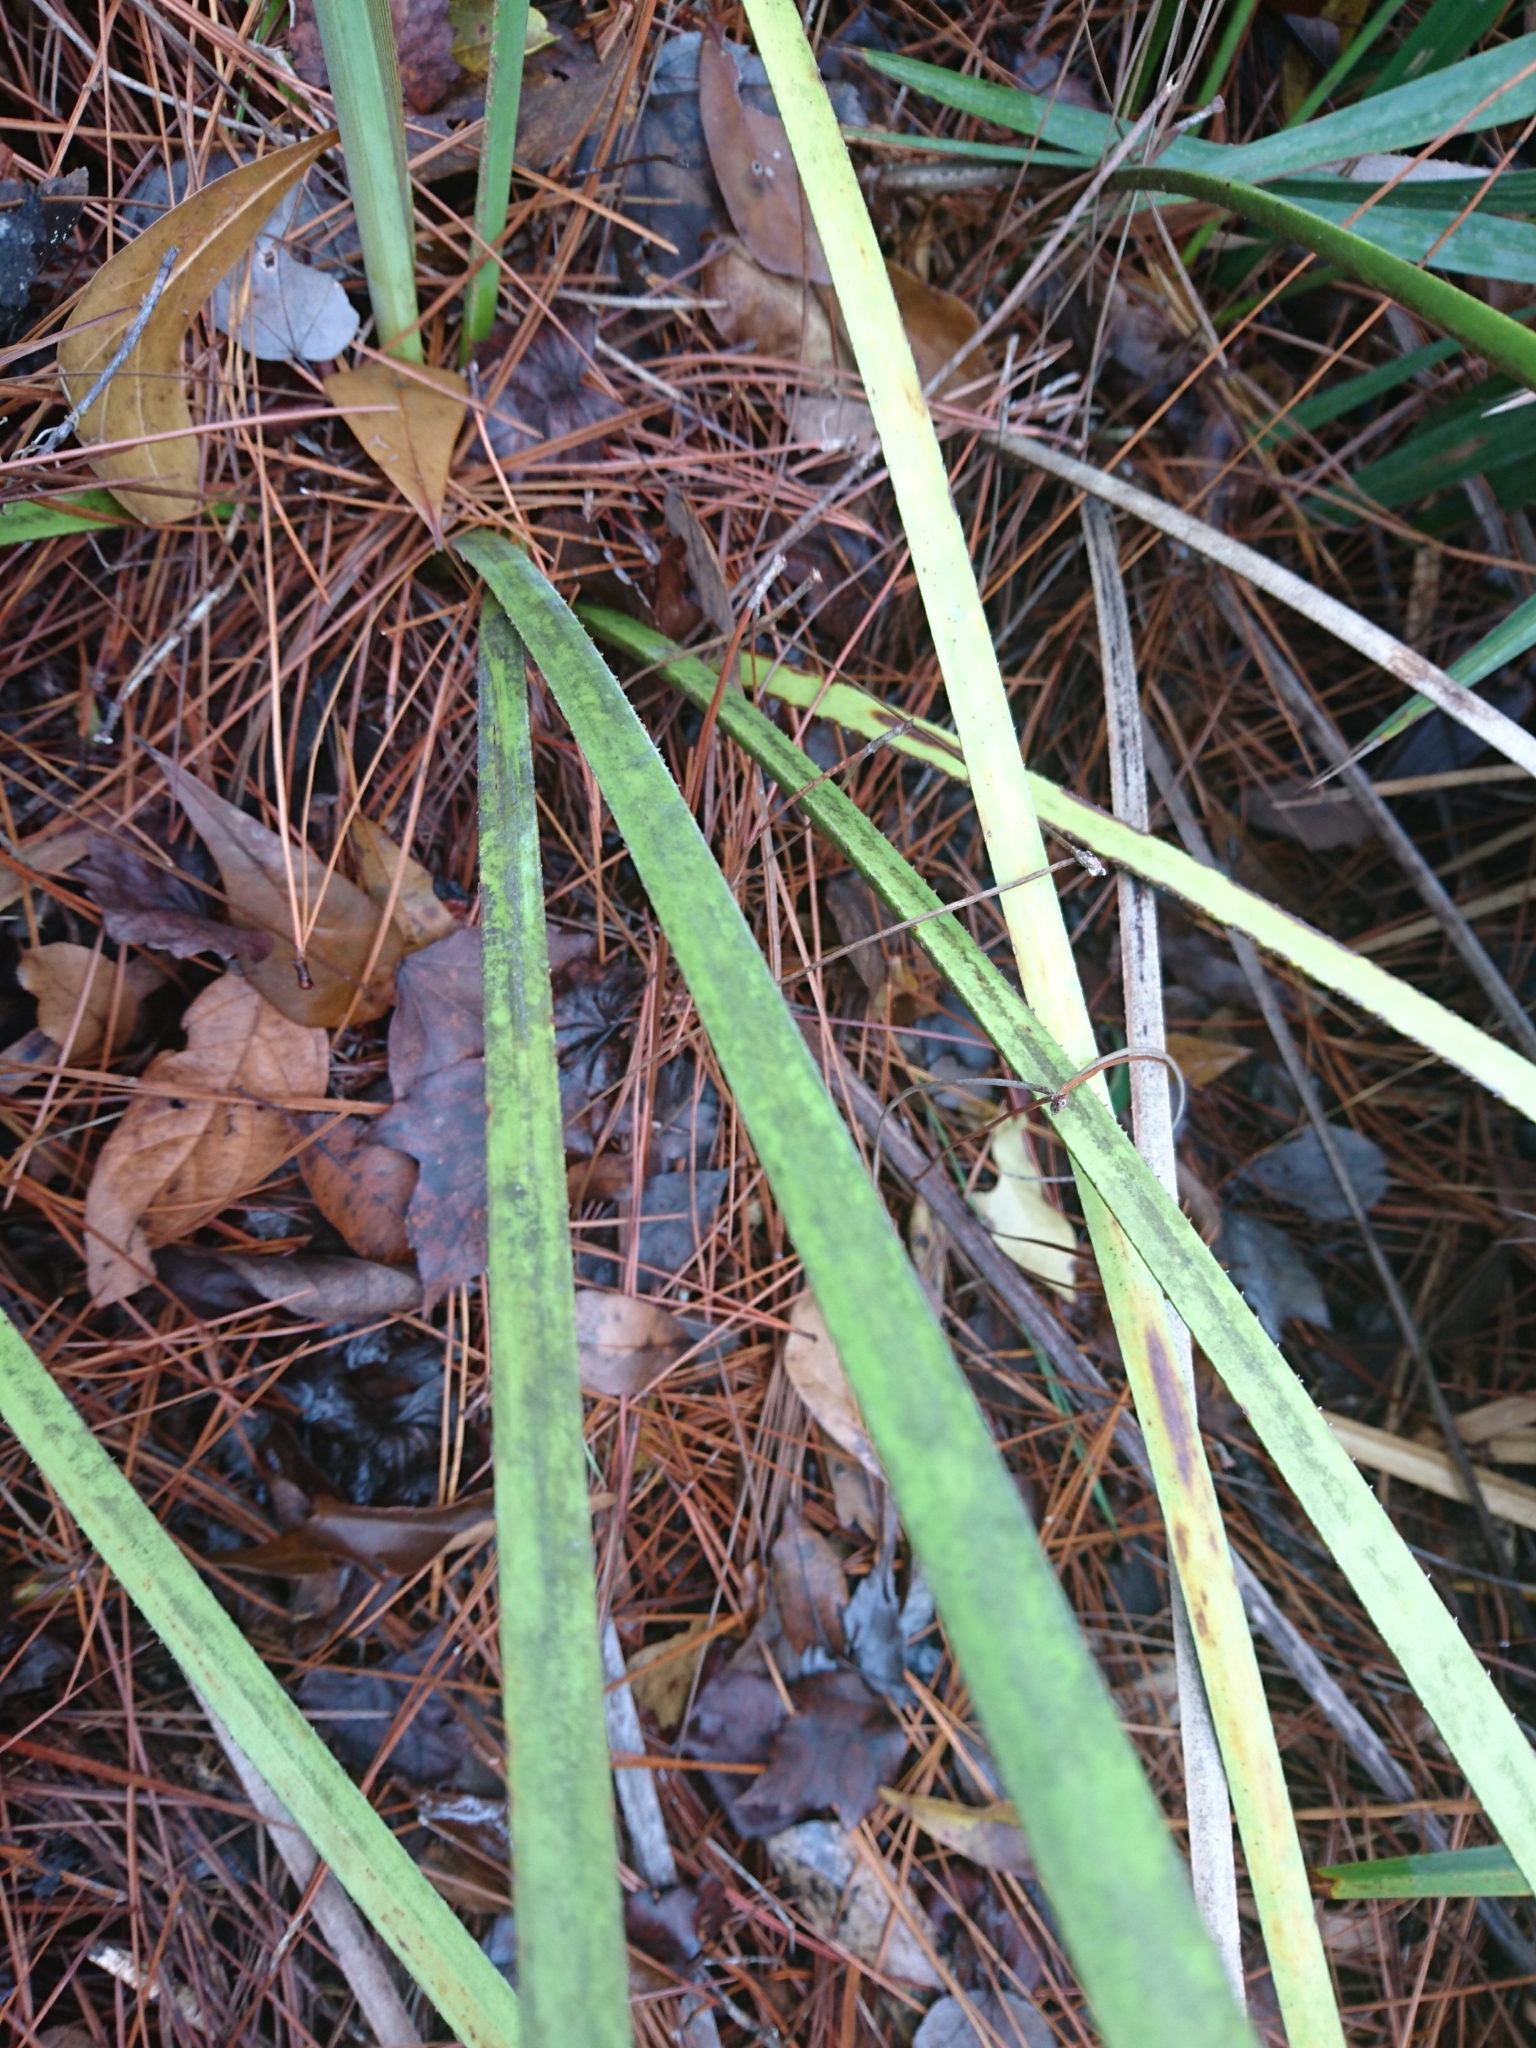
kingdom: Plantae
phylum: Tracheophyta
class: Liliopsida
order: Arecales
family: Arecaceae
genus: Serenoa
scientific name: Serenoa repens
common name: Saw-palmetto
